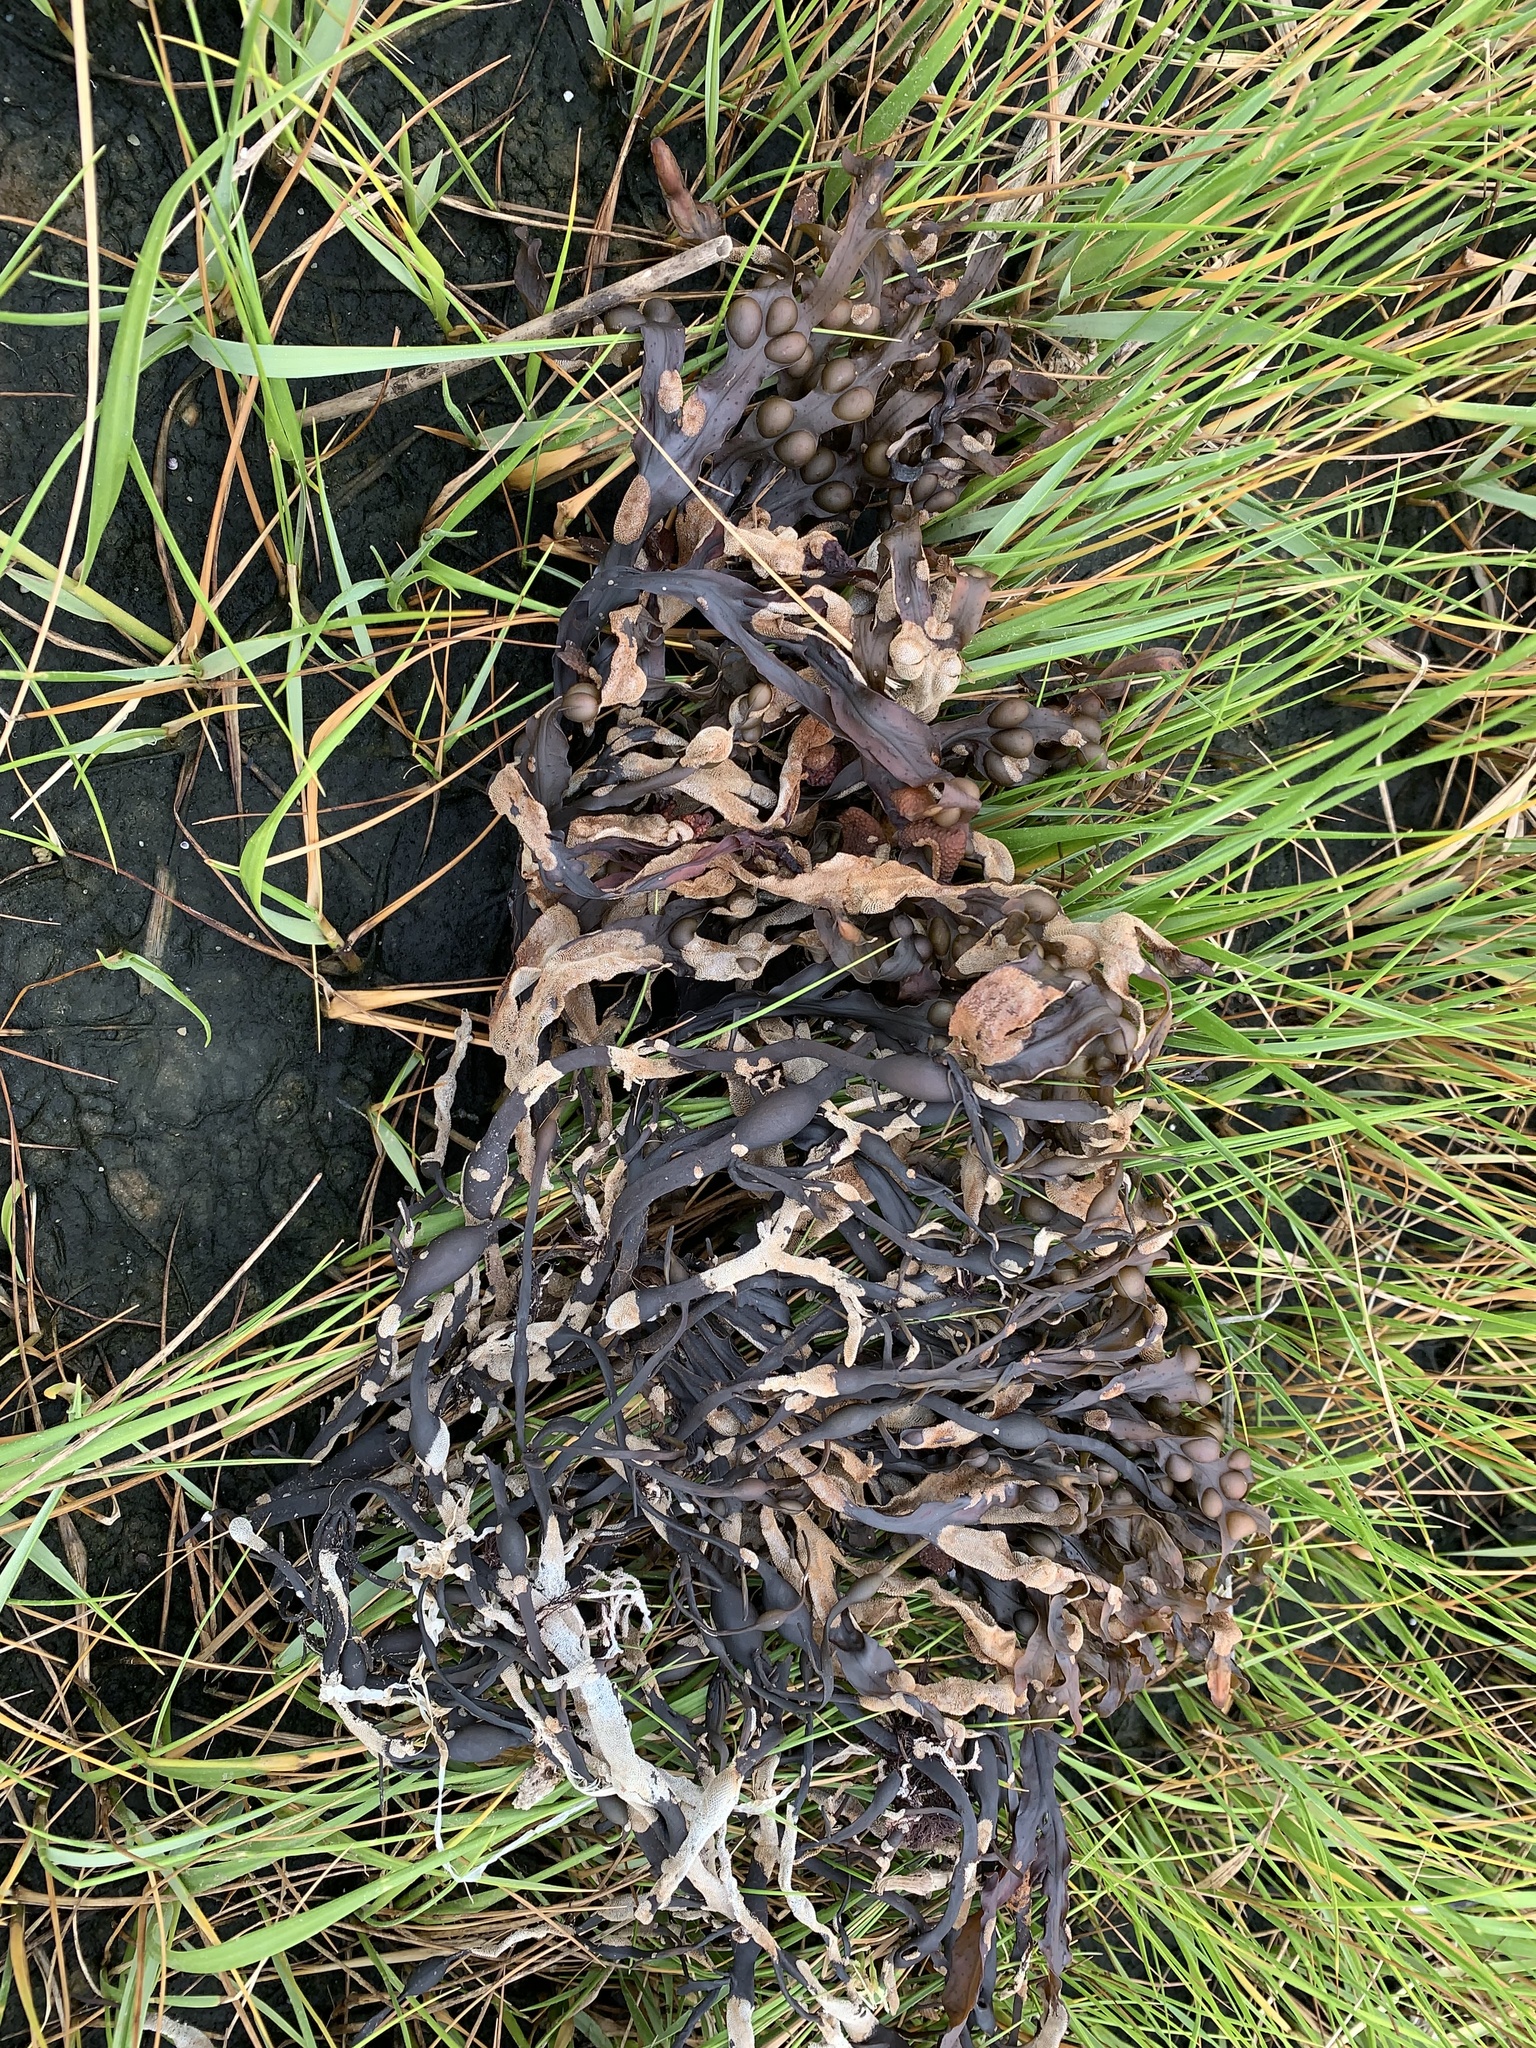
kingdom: Chromista
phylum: Ochrophyta
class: Phaeophyceae
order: Fucales
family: Fucaceae
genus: Fucus
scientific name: Fucus vesiculosus
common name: Bladder wrack
